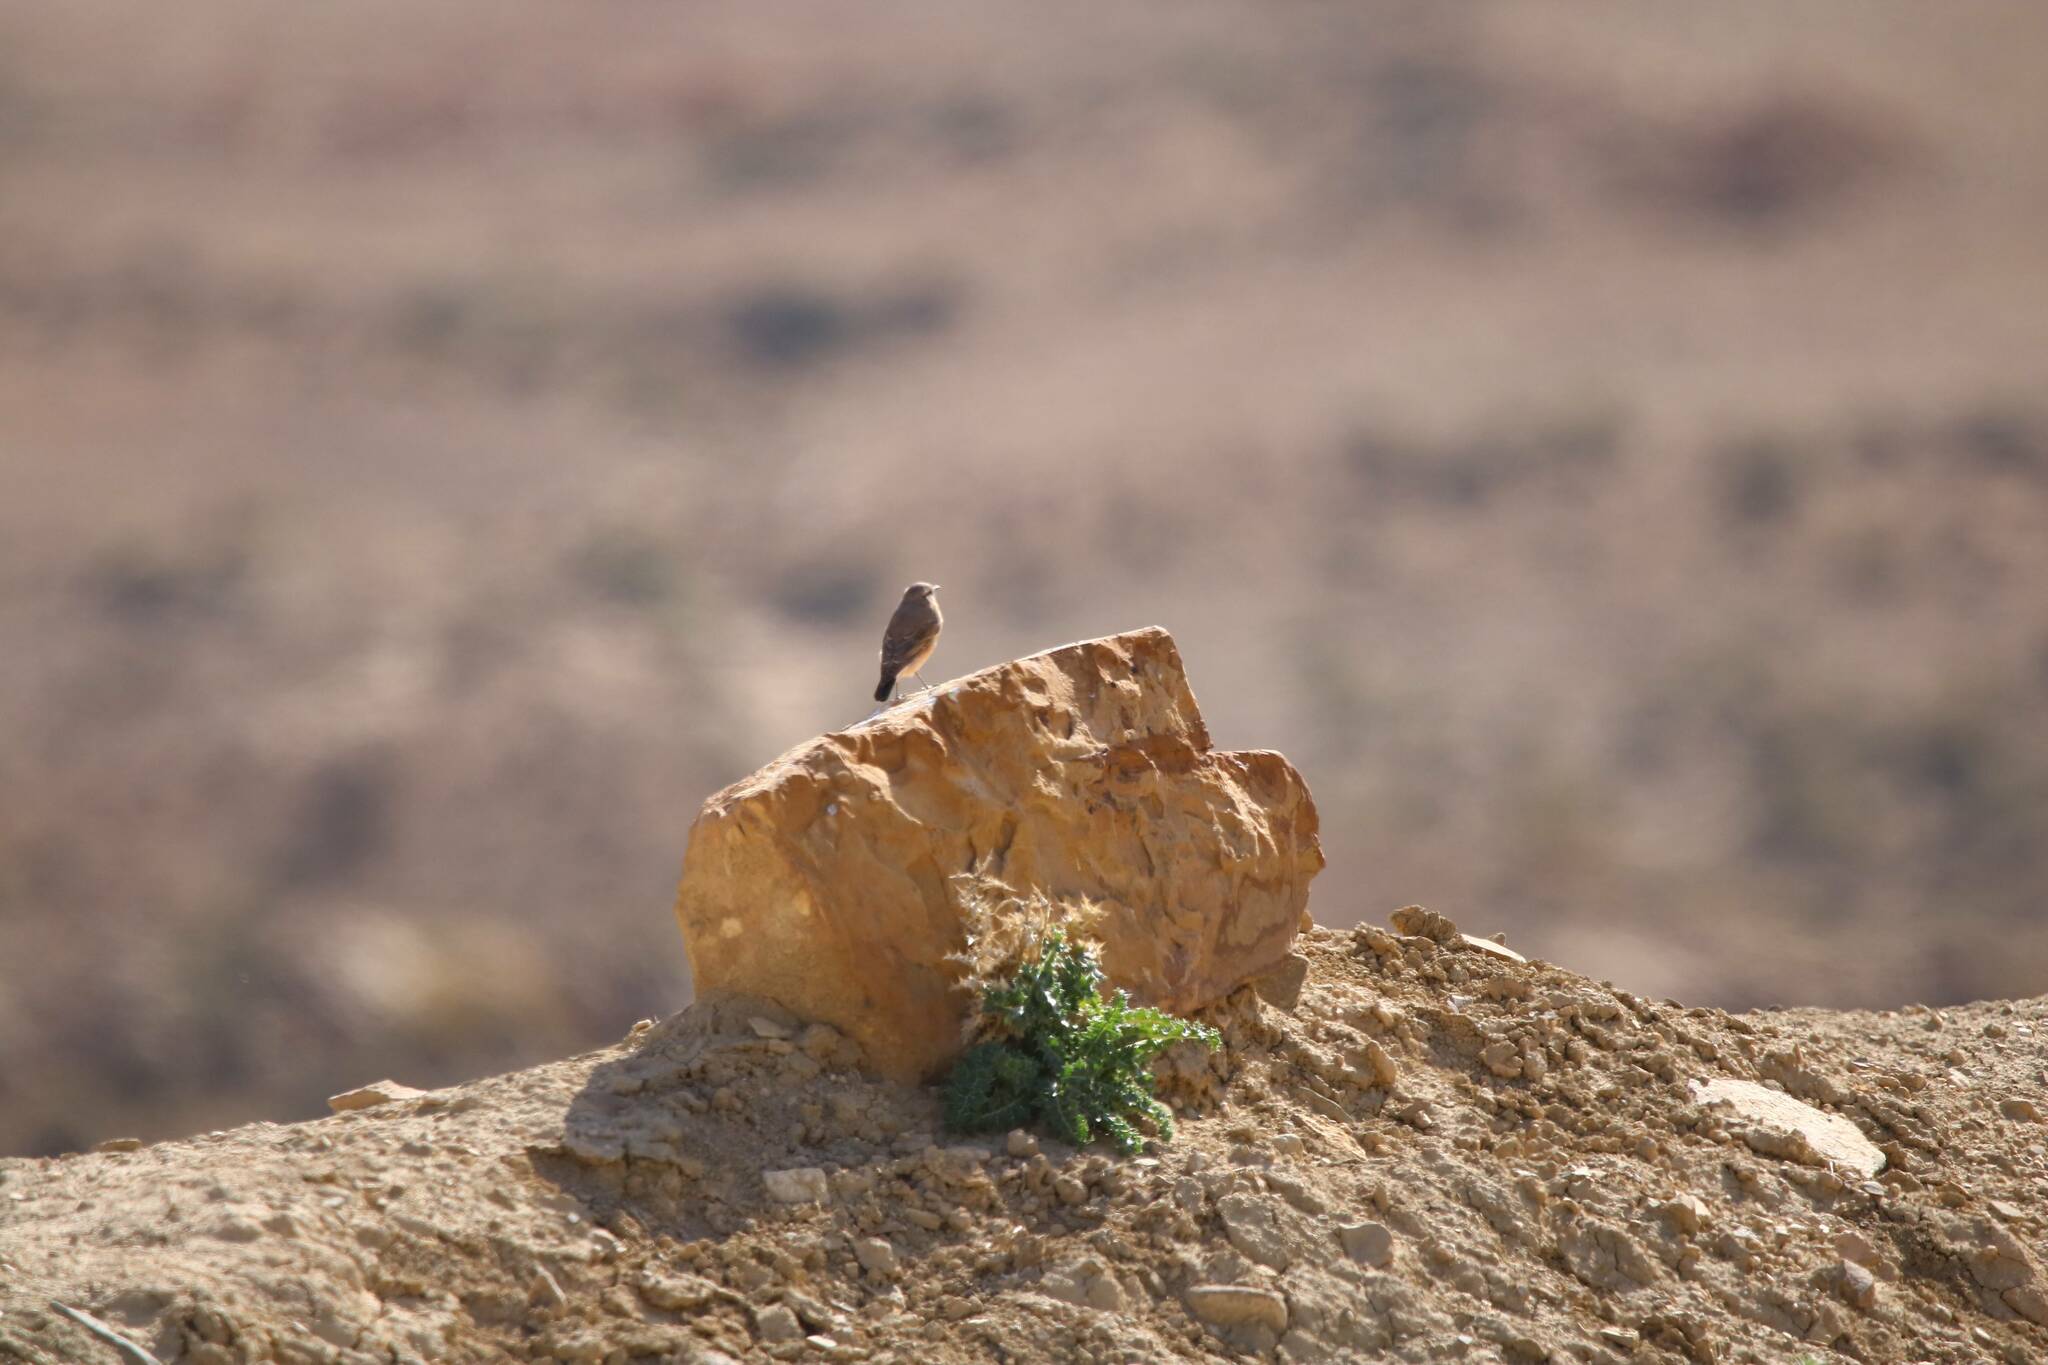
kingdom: Animalia
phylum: Chordata
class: Aves
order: Passeriformes
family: Muscicapidae
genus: Oenanthe
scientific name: Oenanthe oenanthe
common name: Northern wheatear
